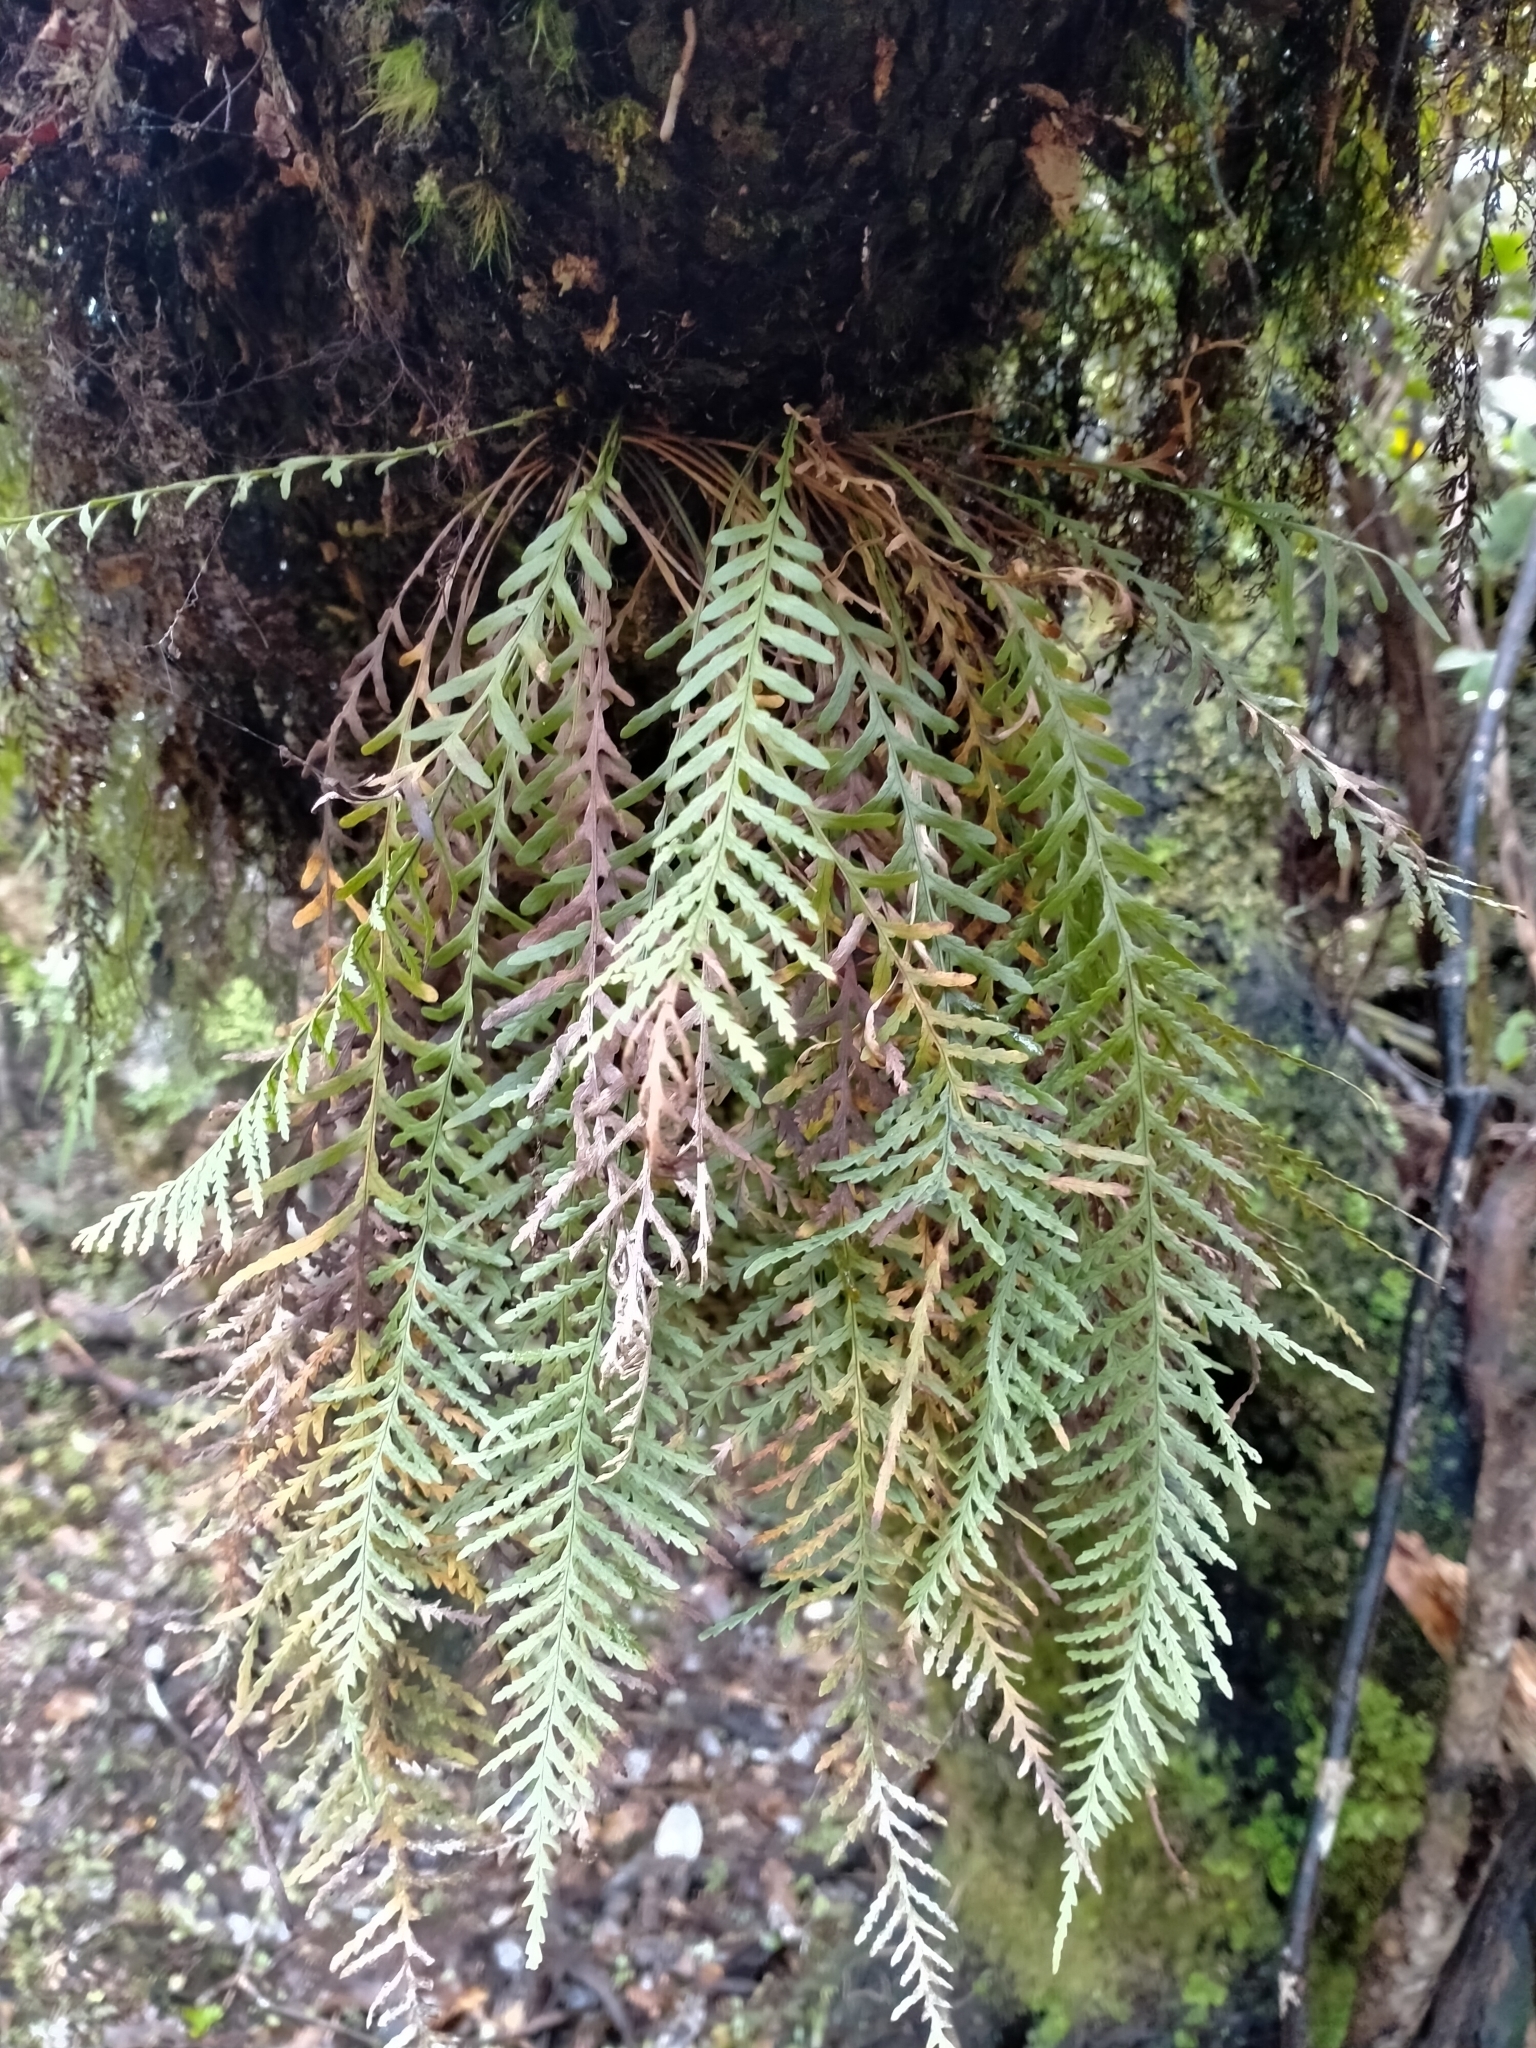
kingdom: Plantae
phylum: Tracheophyta
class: Polypodiopsida
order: Polypodiales
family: Polypodiaceae
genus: Notogrammitis
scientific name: Notogrammitis heterophylla
